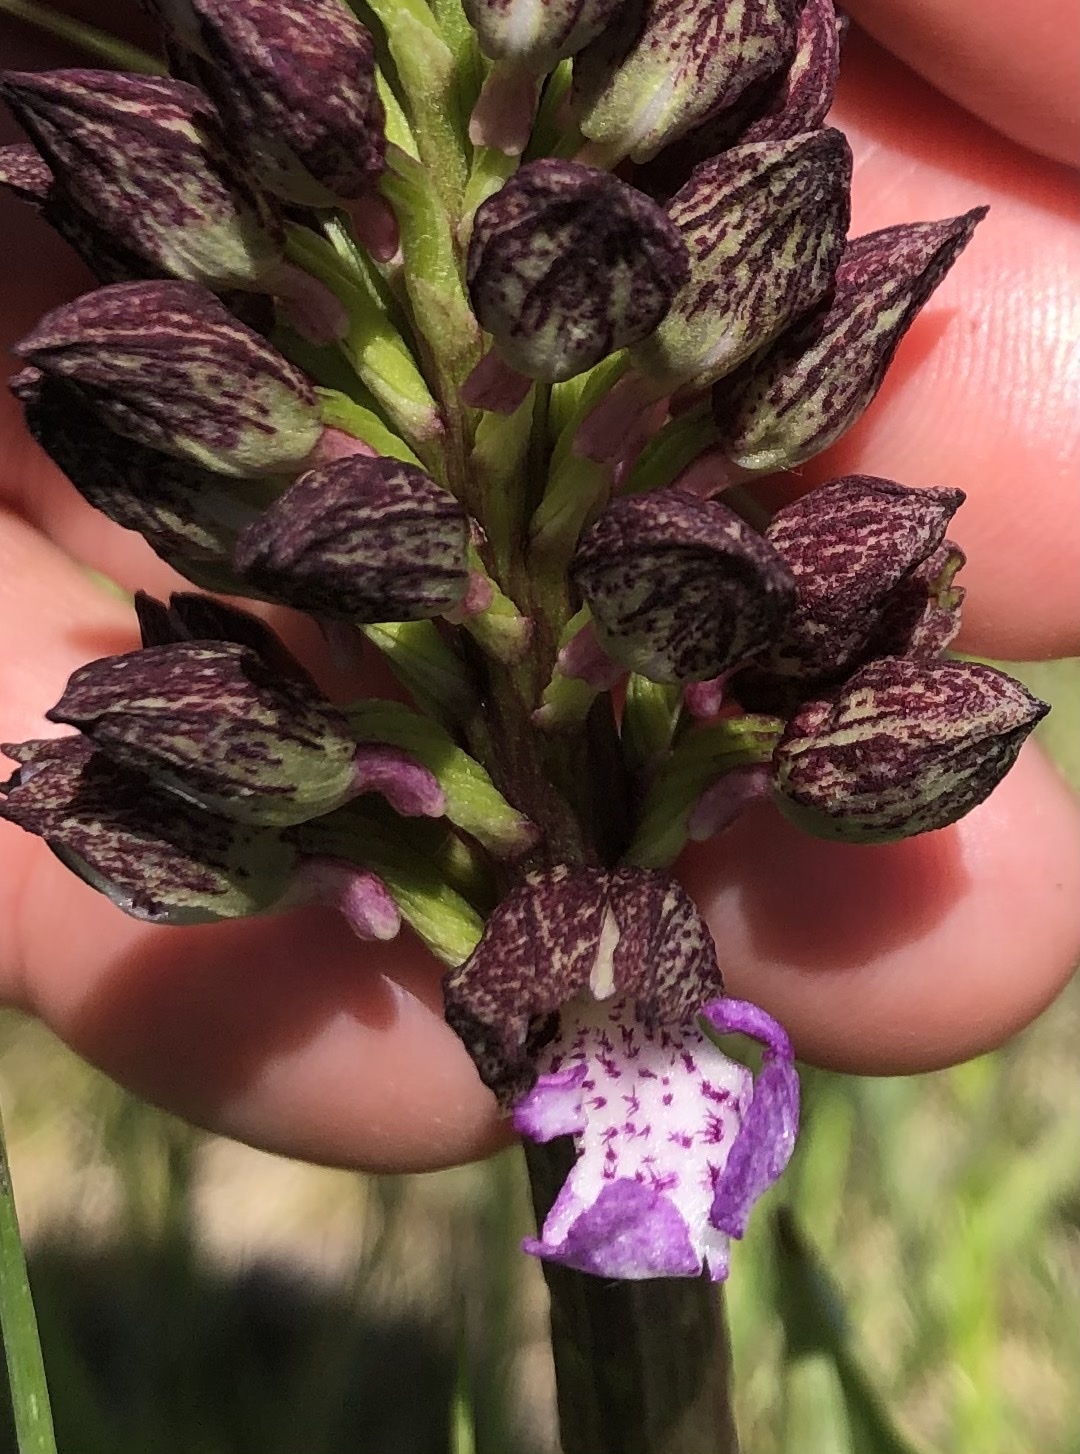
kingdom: Plantae
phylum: Tracheophyta
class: Liliopsida
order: Asparagales
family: Orchidaceae
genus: Orchis
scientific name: Orchis purpurea
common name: Lady orchid
